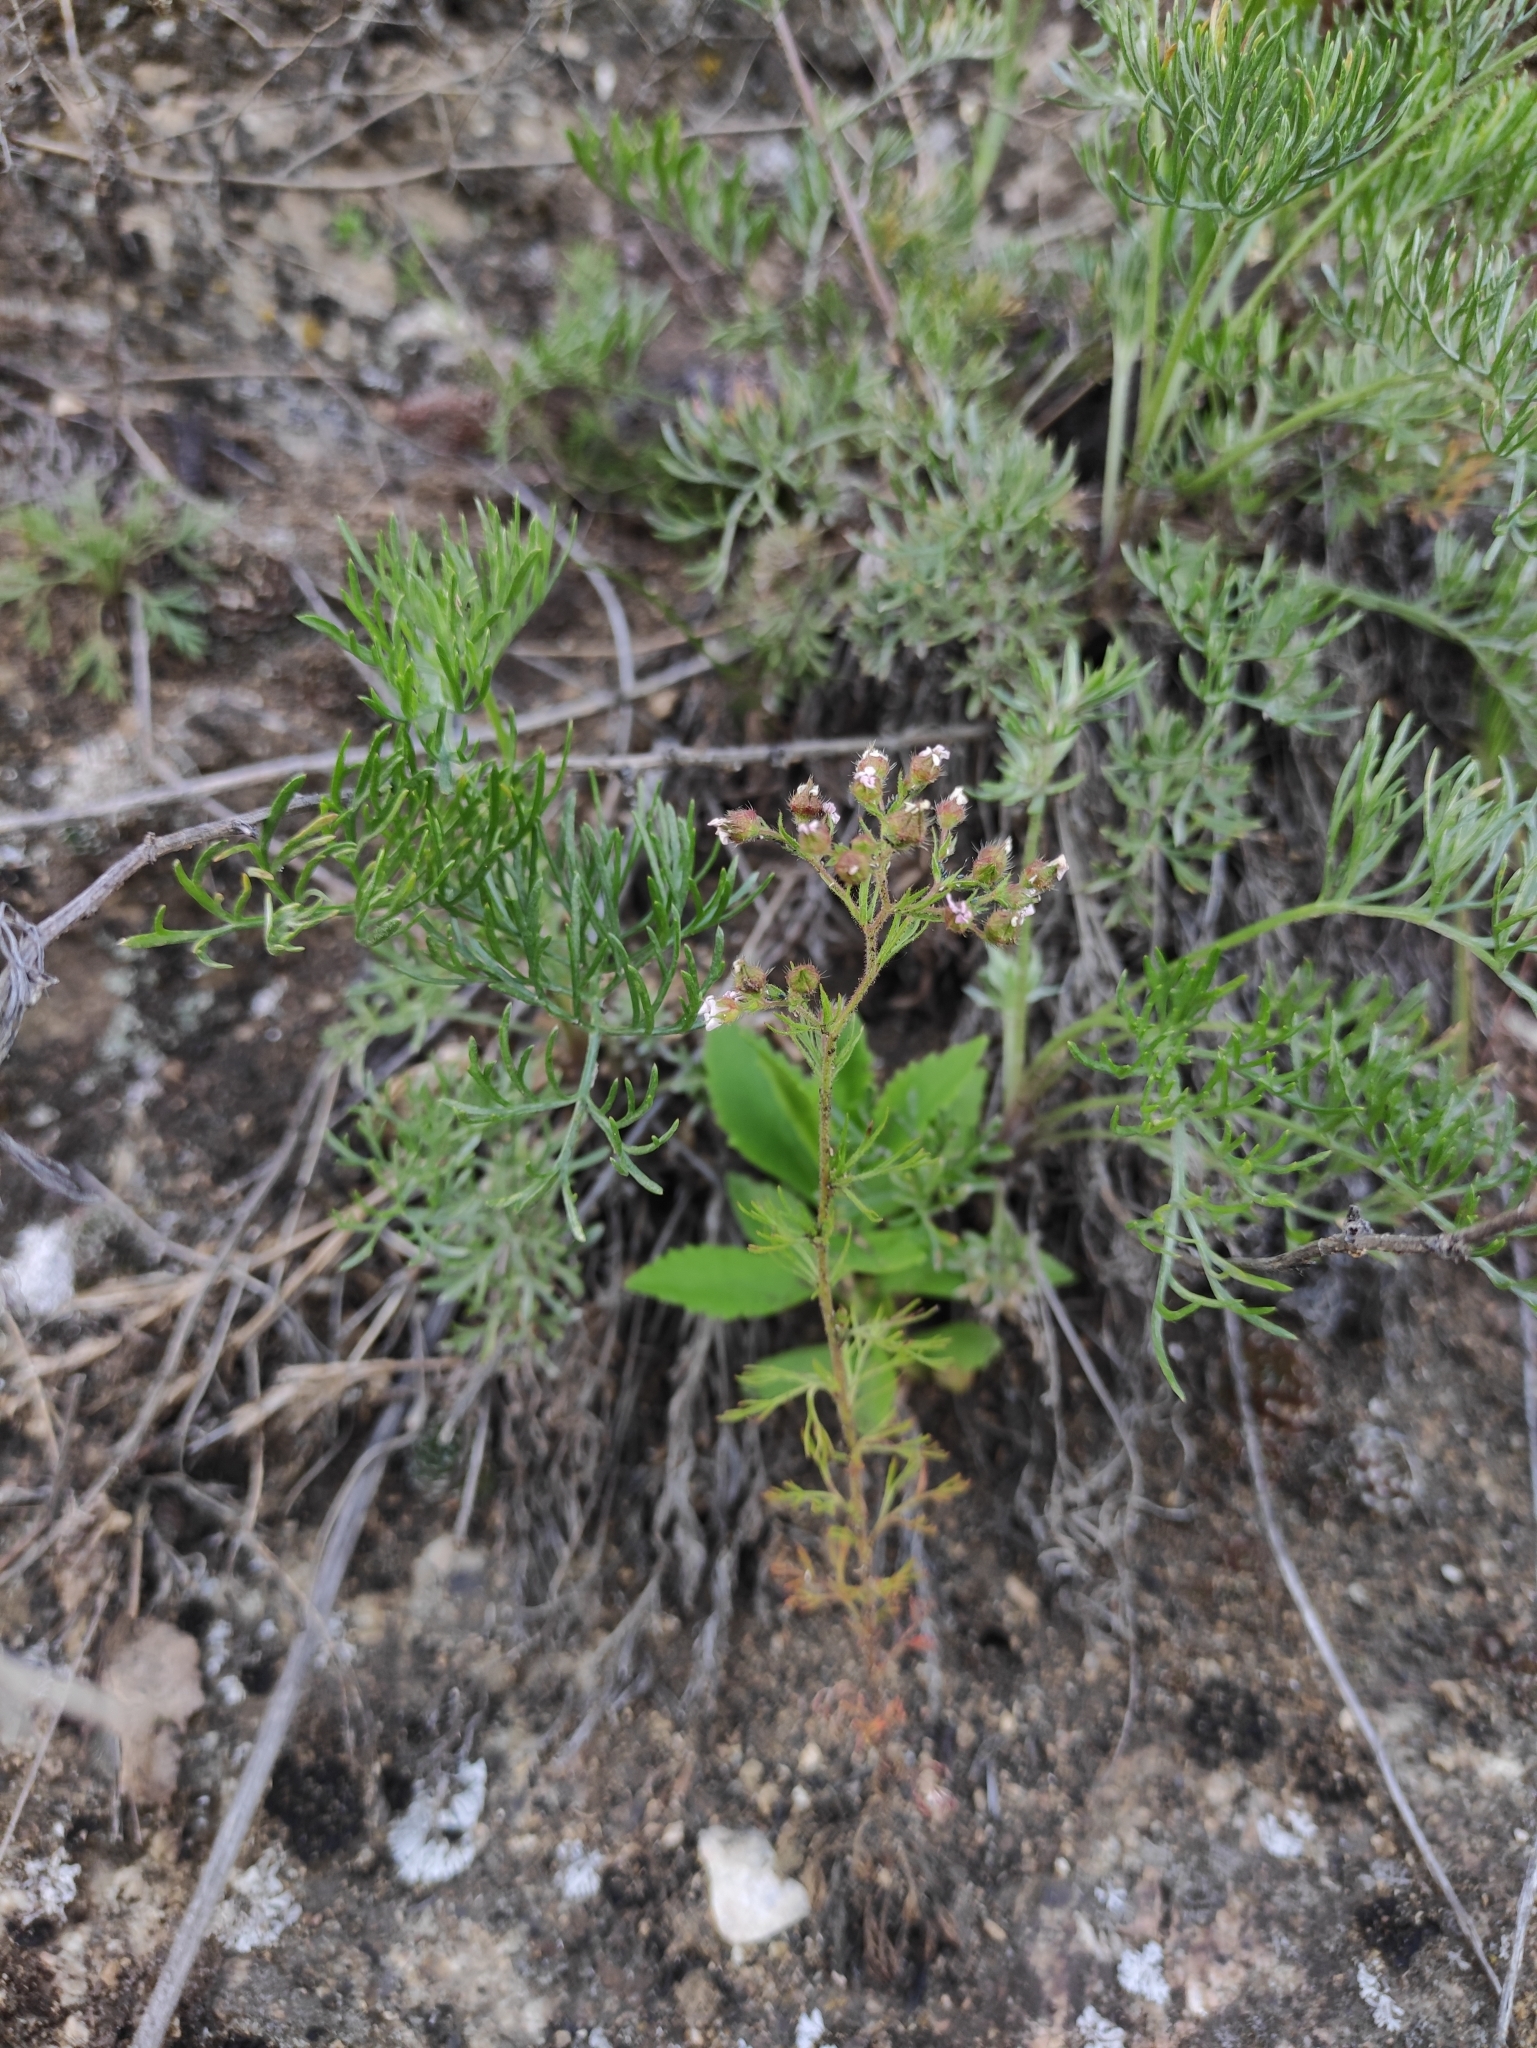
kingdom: Plantae
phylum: Tracheophyta
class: Magnoliopsida
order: Rosales
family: Rosaceae
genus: Chamaerhodos
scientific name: Chamaerhodos erecta
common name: American chamaerhodos
